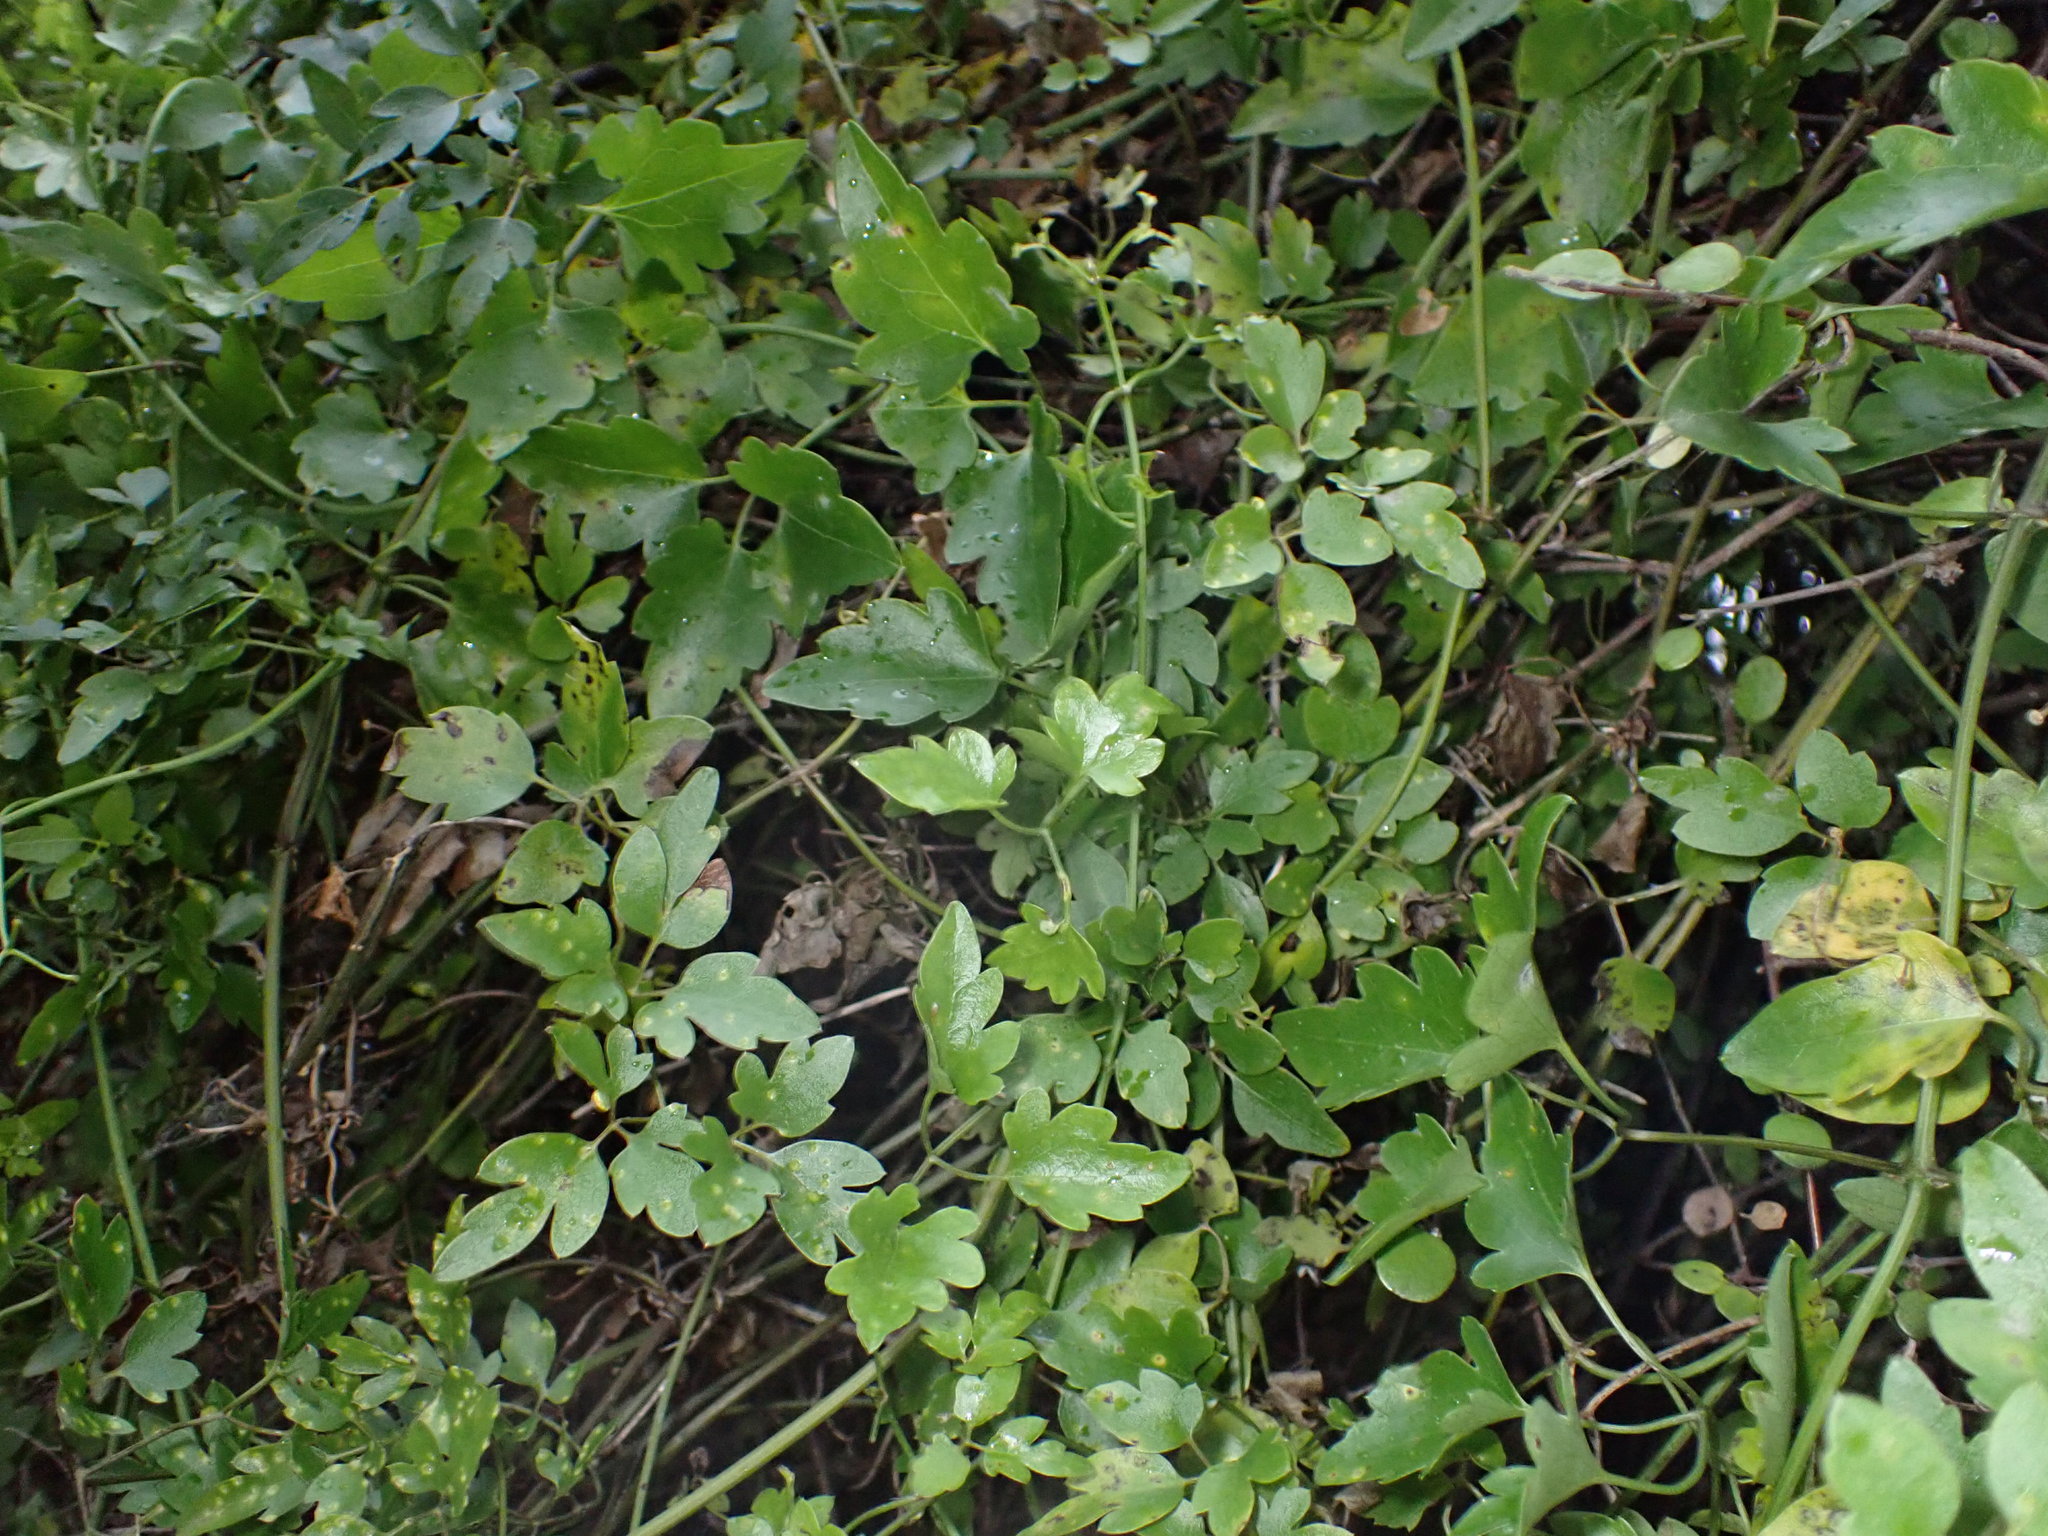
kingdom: Plantae
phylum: Tracheophyta
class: Magnoliopsida
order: Ranunculales
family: Ranunculaceae
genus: Clematis
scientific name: Clematis forsteri
